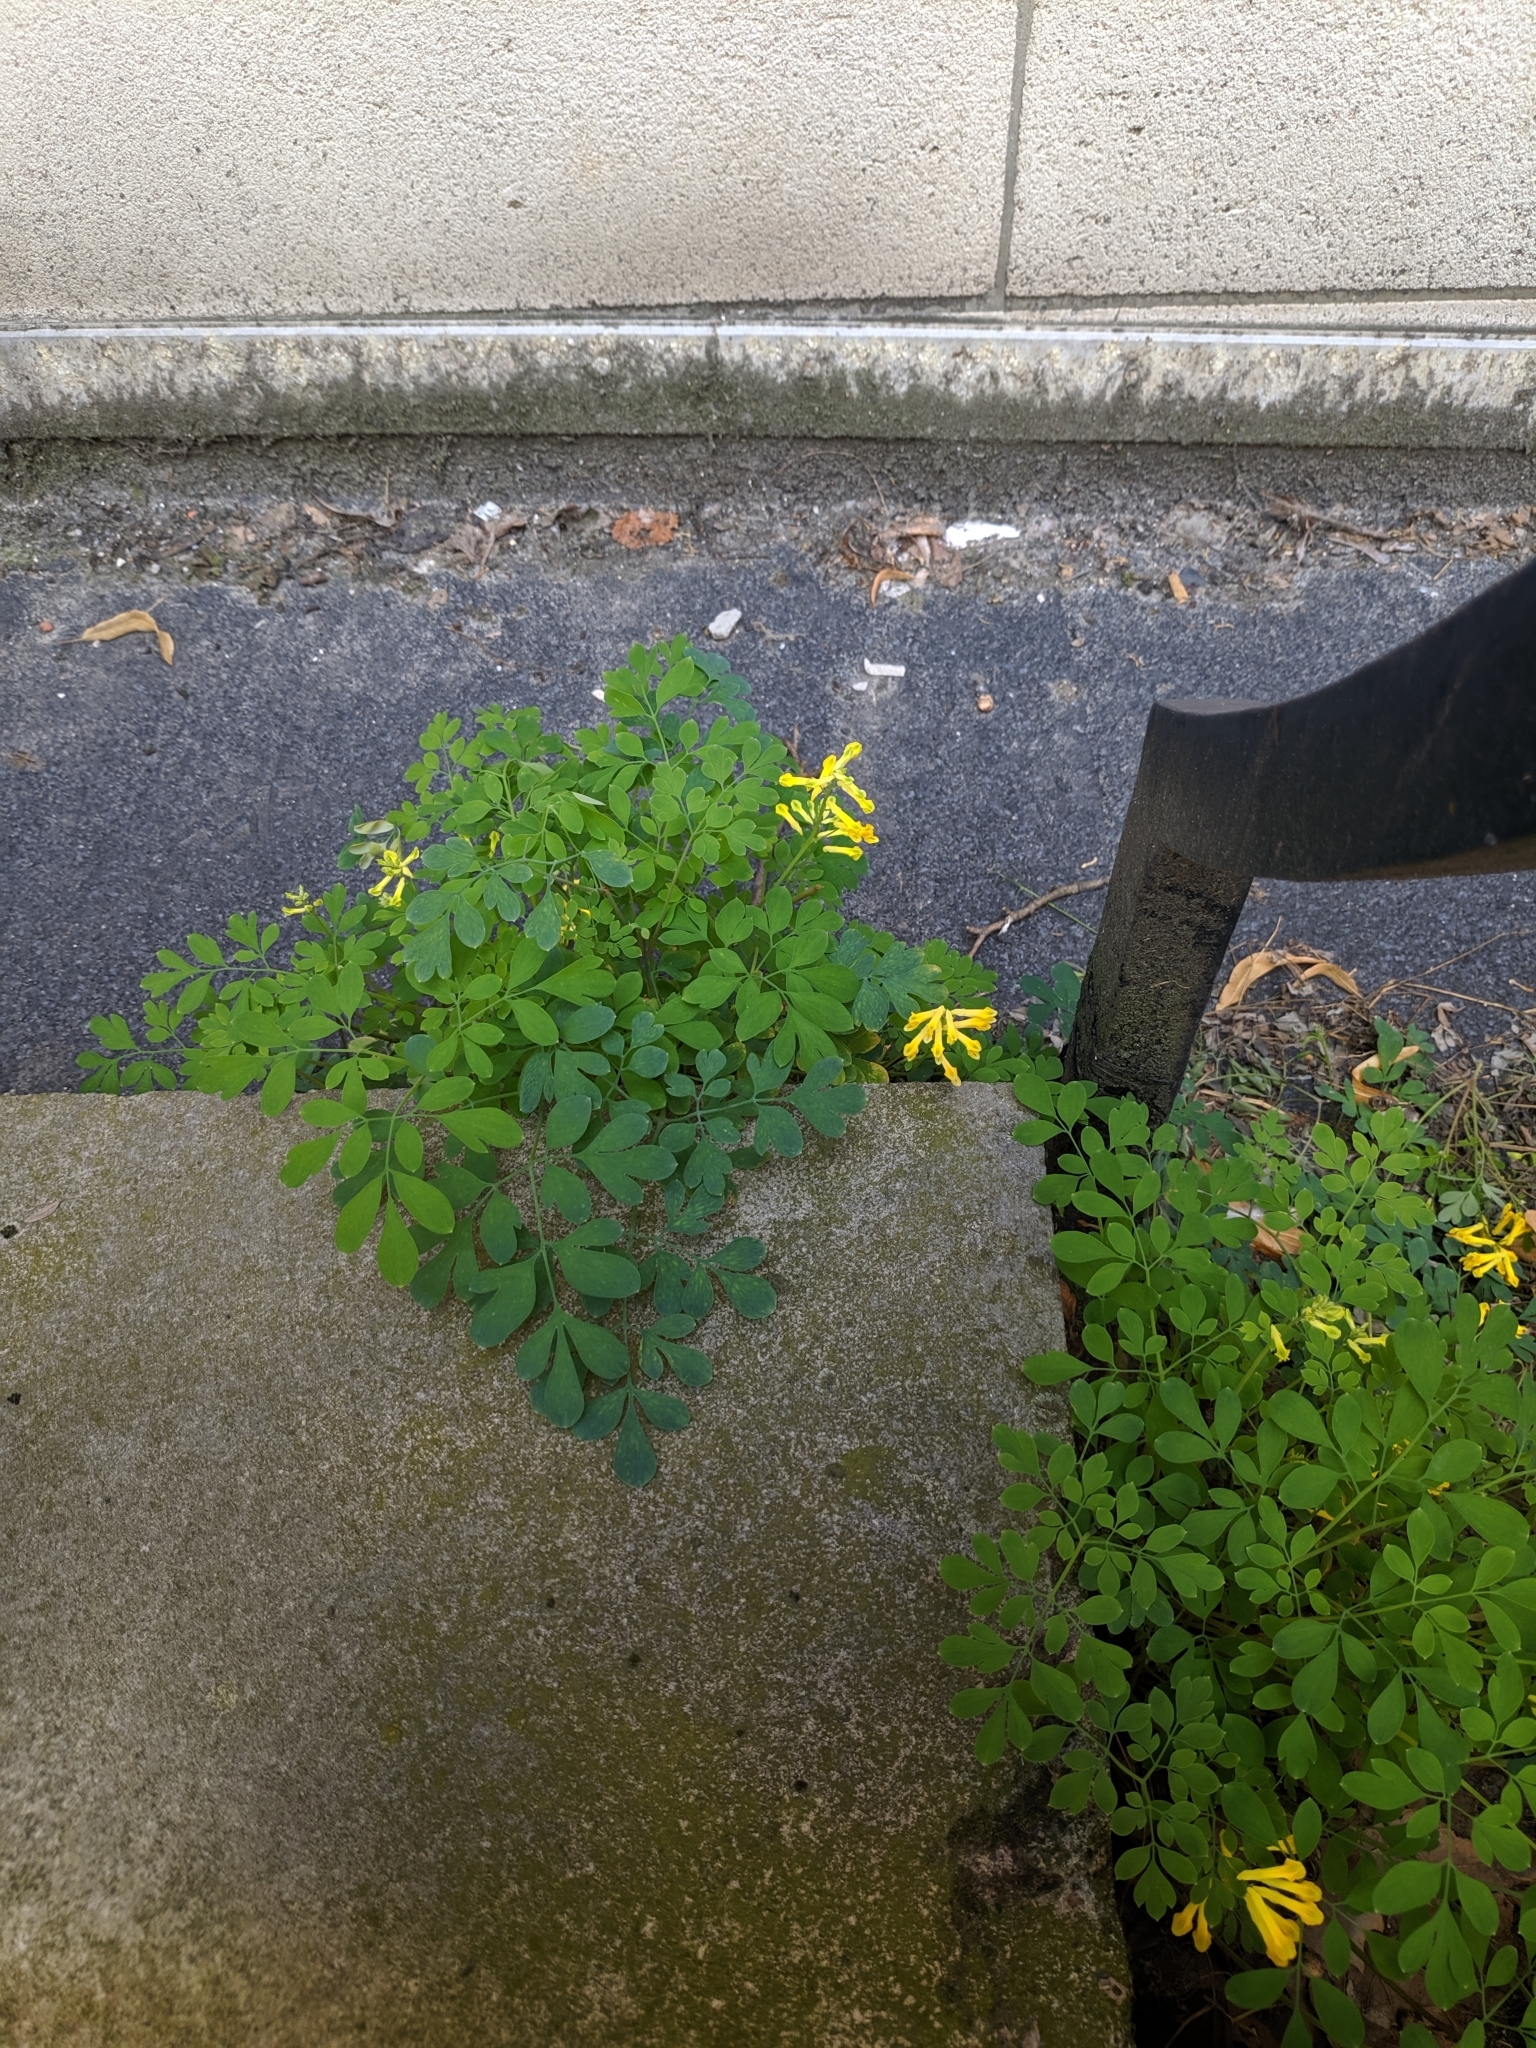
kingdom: Plantae
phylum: Tracheophyta
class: Magnoliopsida
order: Ranunculales
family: Papaveraceae
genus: Pseudofumaria
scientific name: Pseudofumaria lutea
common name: Yellow corydalis
